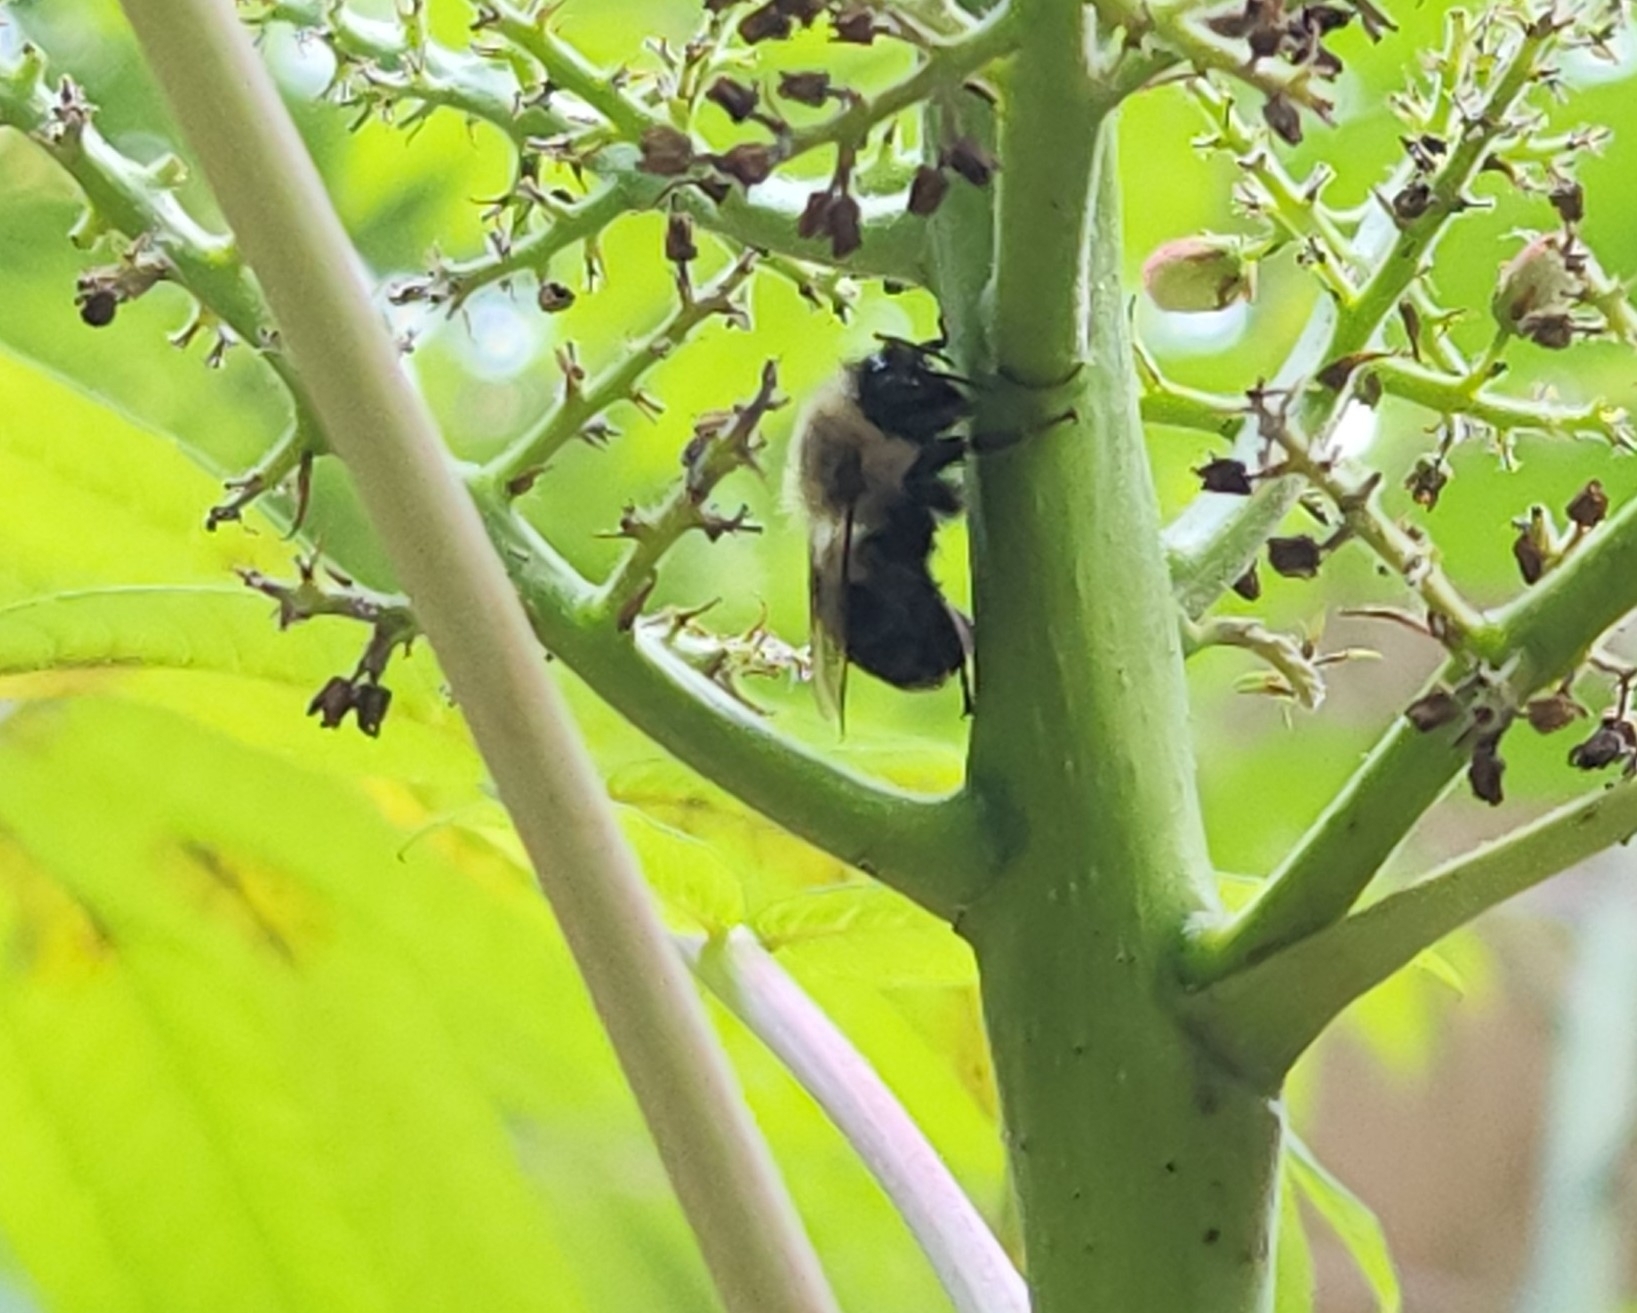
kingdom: Animalia
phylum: Arthropoda
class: Insecta
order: Hymenoptera
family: Apidae
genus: Bombus
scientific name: Bombus impatiens
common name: Common eastern bumble bee
